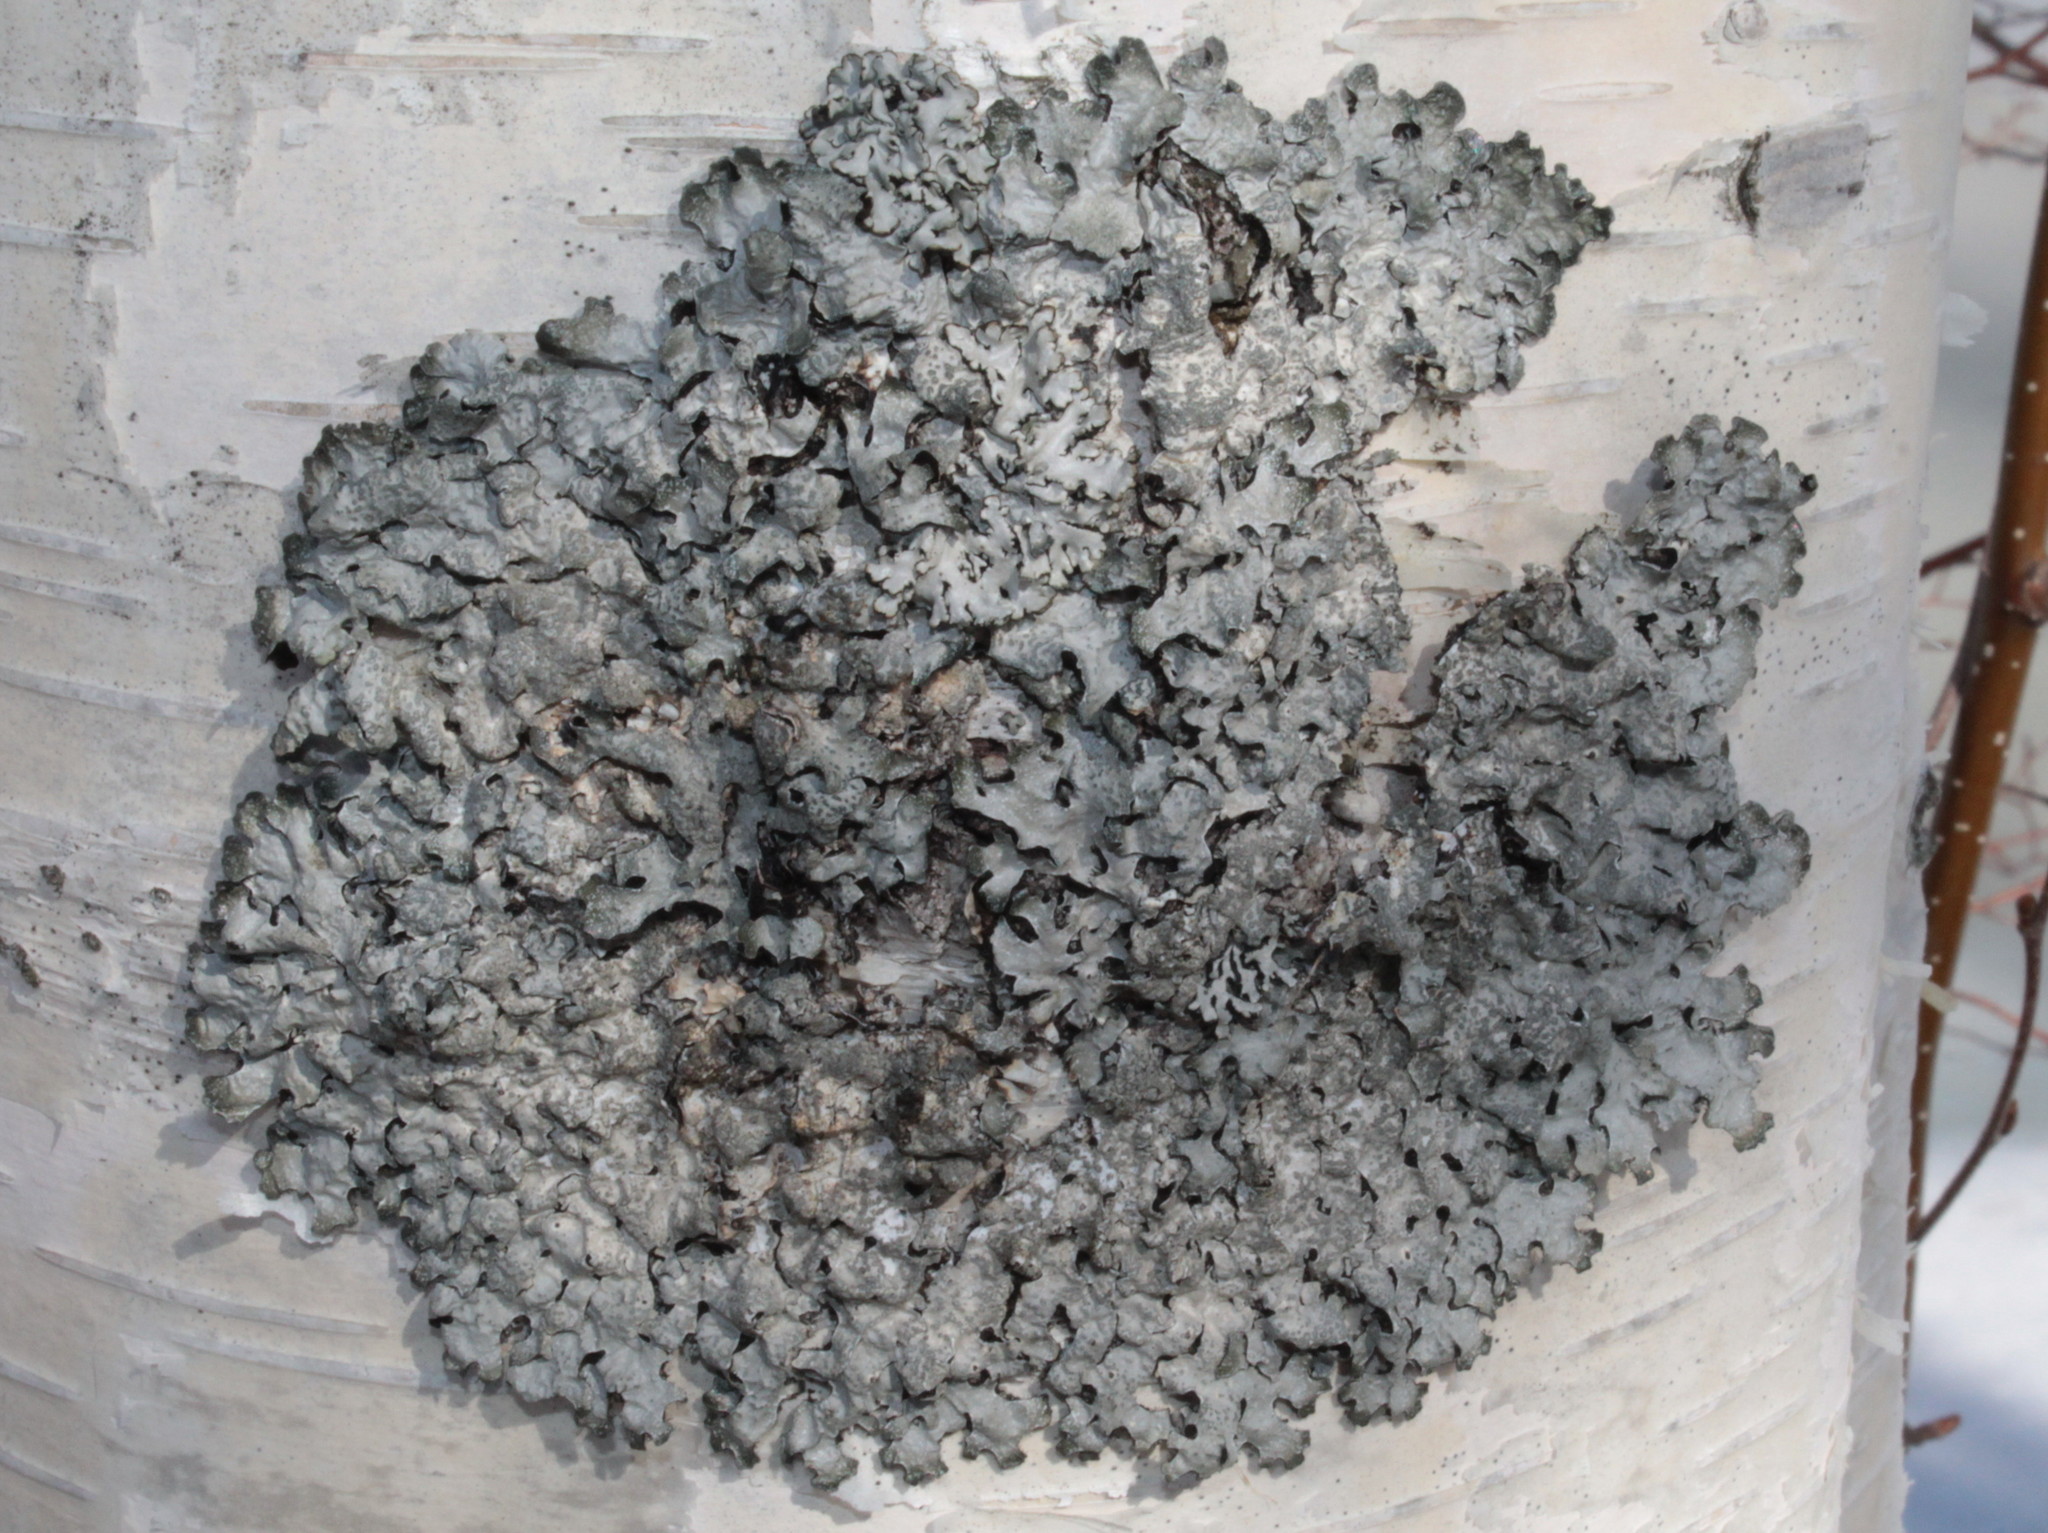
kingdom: Fungi
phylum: Ascomycota
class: Lecanoromycetes
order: Lecanorales
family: Parmeliaceae
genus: Parmelia
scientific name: Parmelia sulcata
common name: Netted shield lichen
